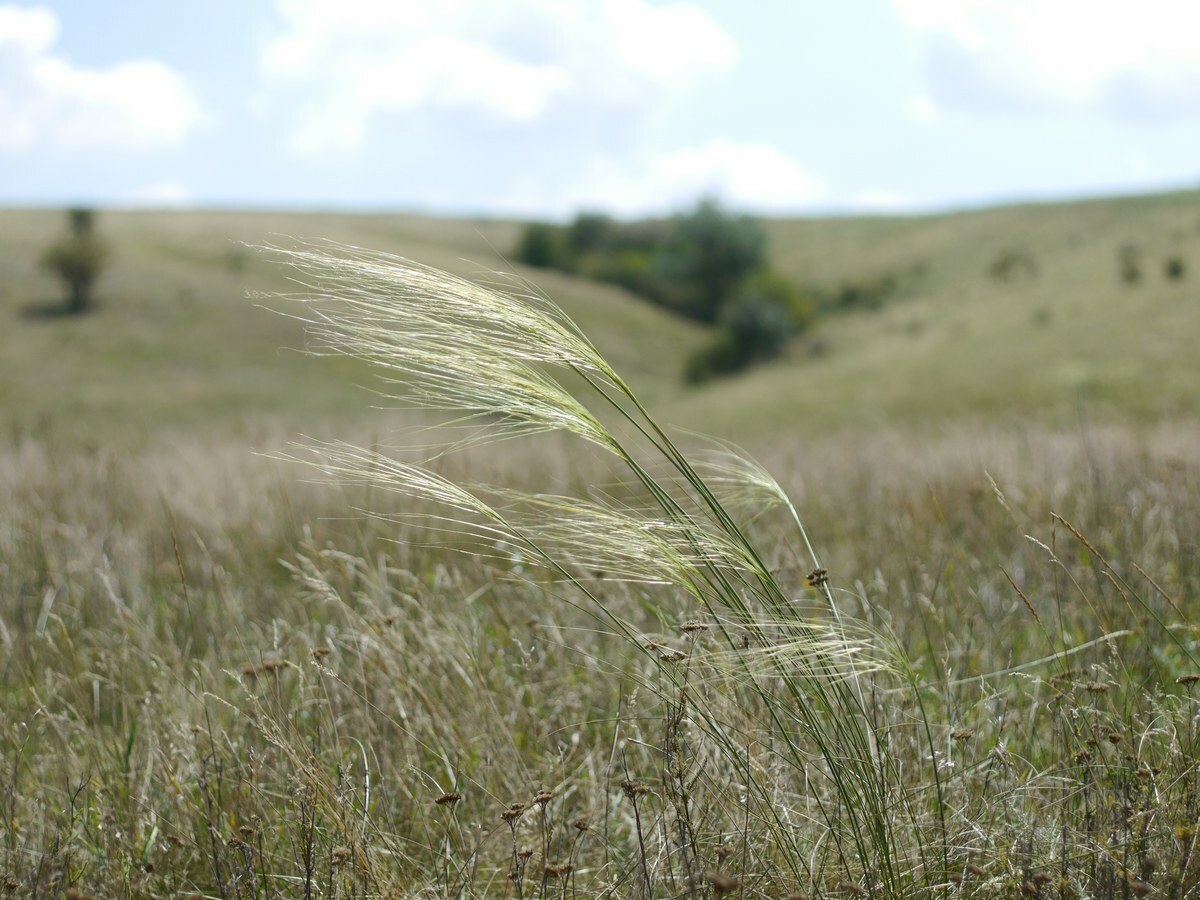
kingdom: Plantae
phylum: Tracheophyta
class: Liliopsida
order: Poales
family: Poaceae
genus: Stipa
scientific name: Stipa capillata
